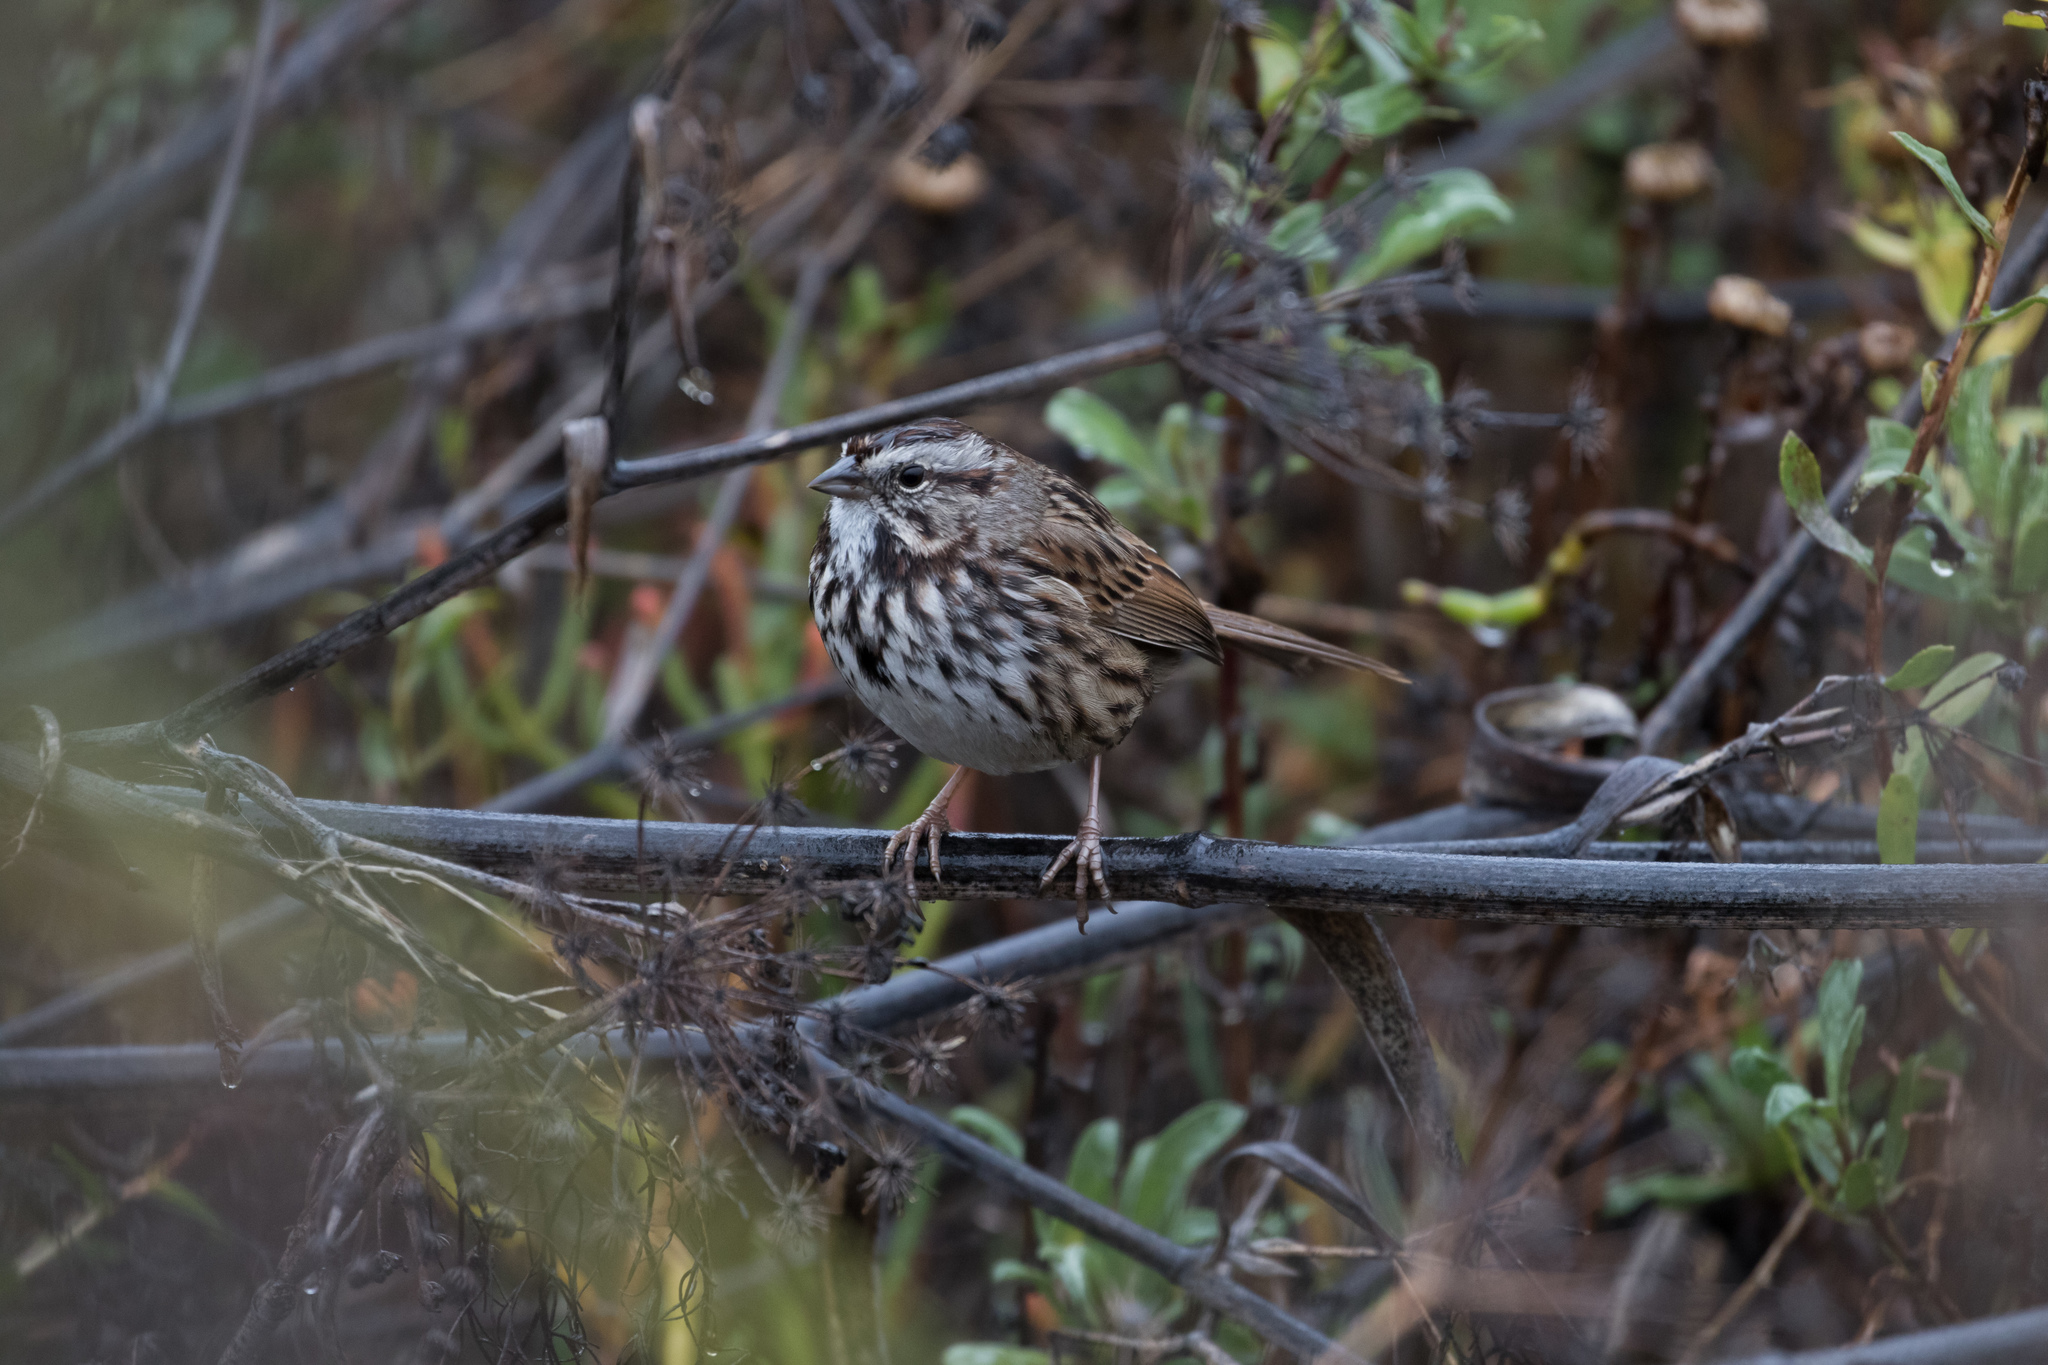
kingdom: Animalia
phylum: Chordata
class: Aves
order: Passeriformes
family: Passerellidae
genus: Melospiza
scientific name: Melospiza melodia
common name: Song sparrow
